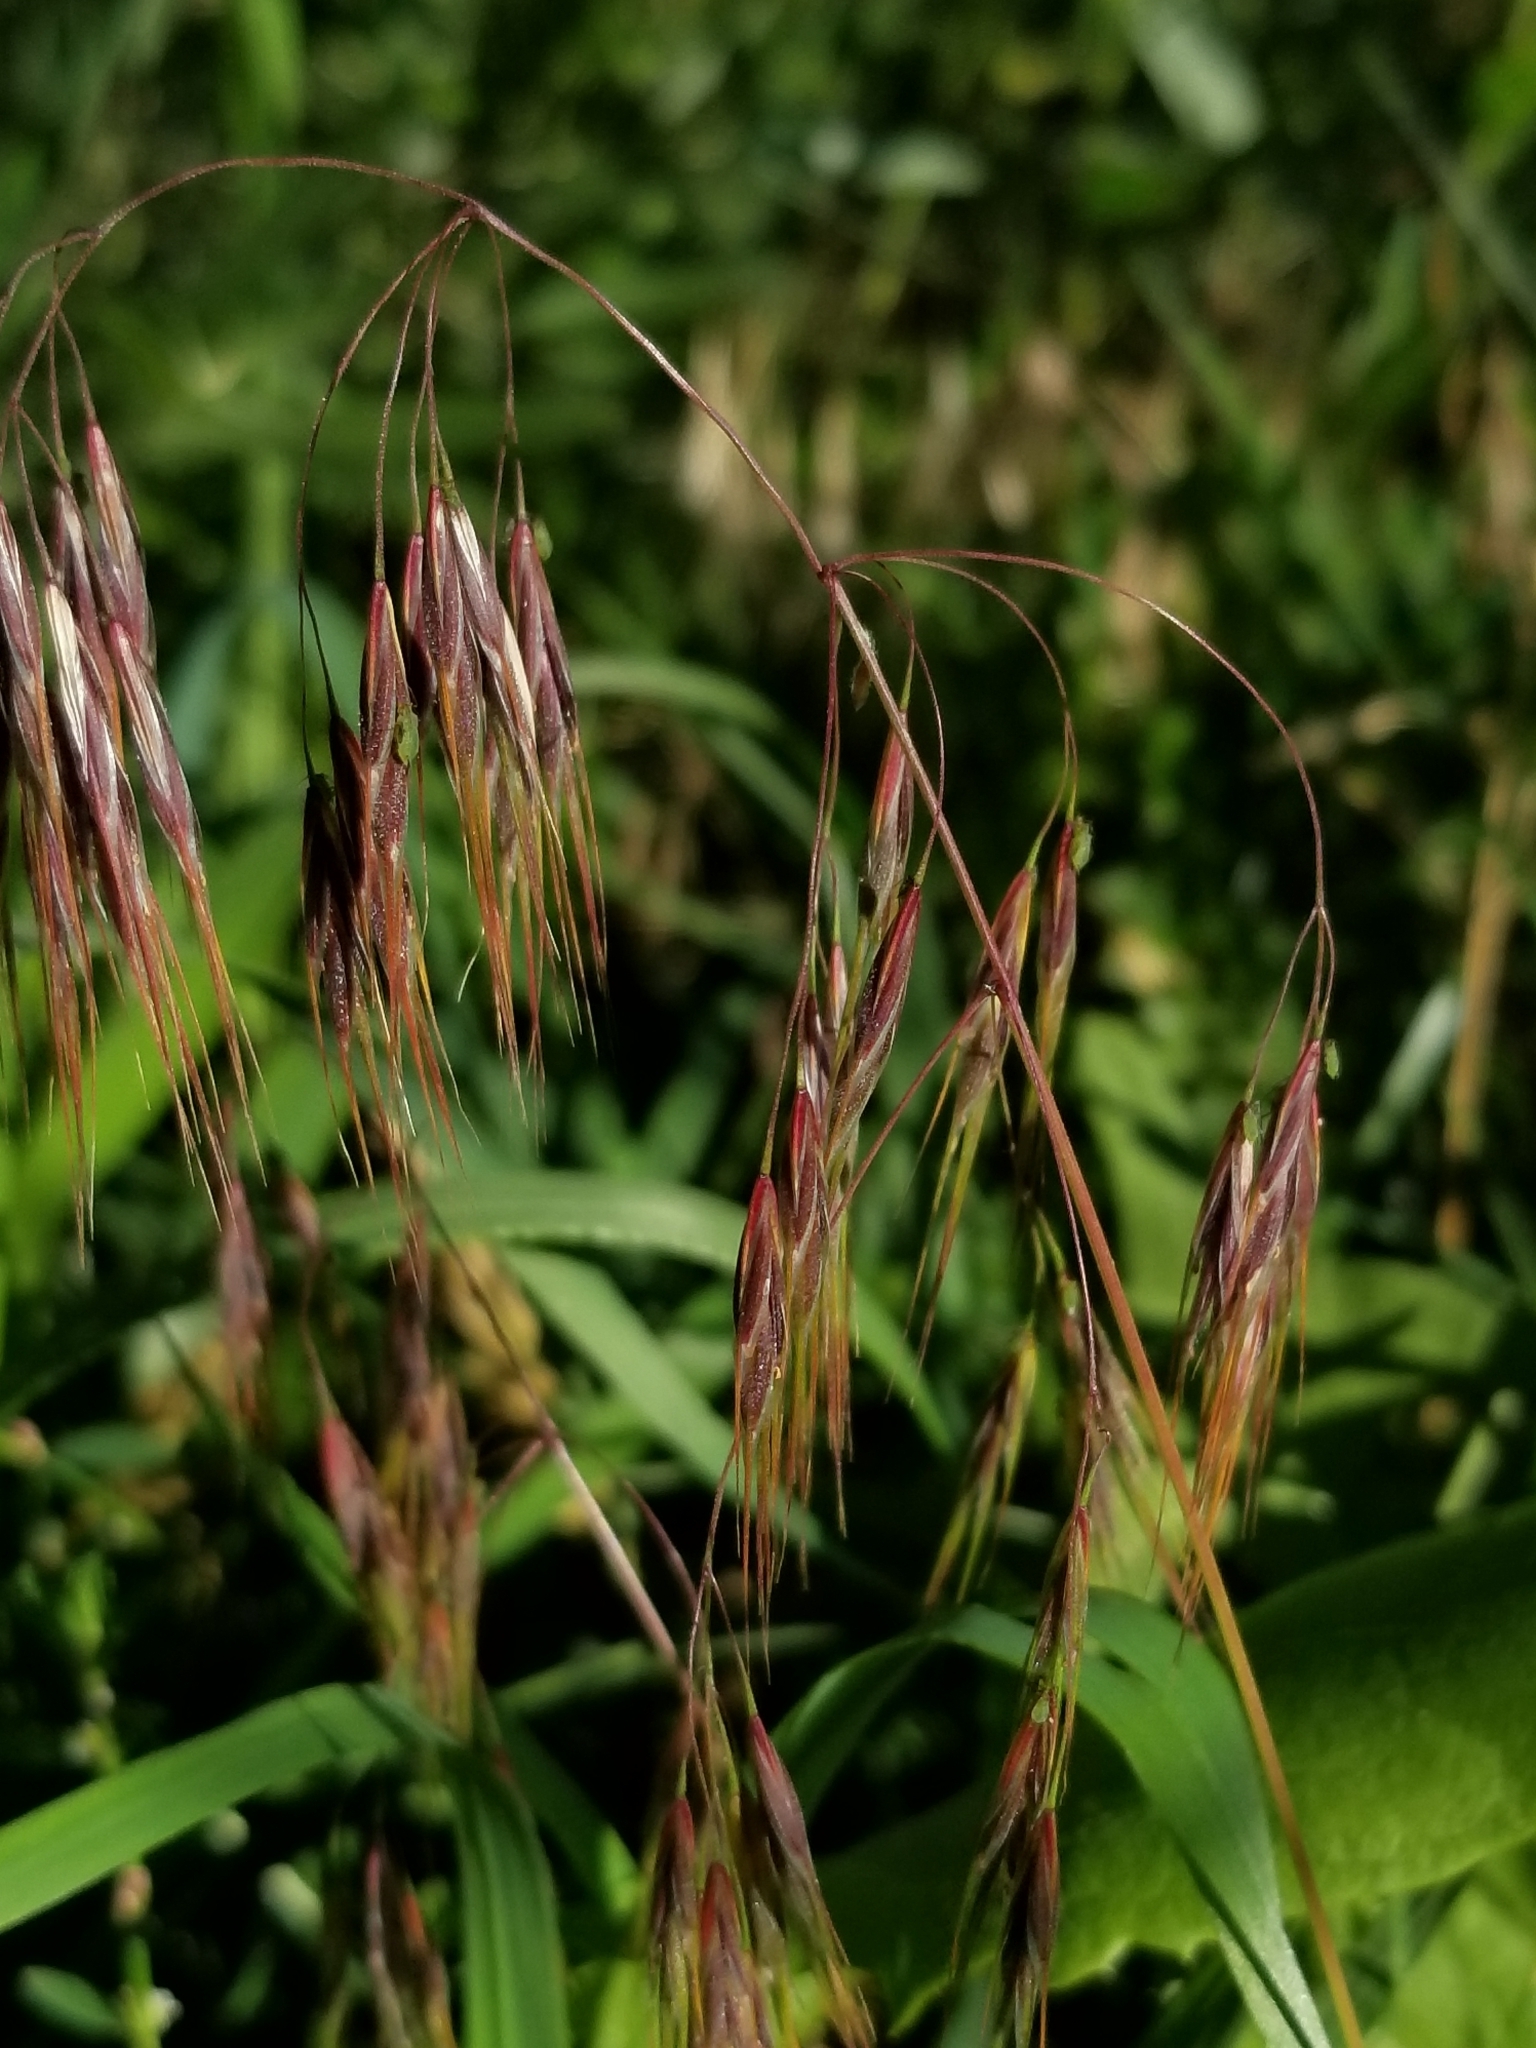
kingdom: Plantae
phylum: Tracheophyta
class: Liliopsida
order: Poales
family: Poaceae
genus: Bromus
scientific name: Bromus tectorum
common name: Cheatgrass
